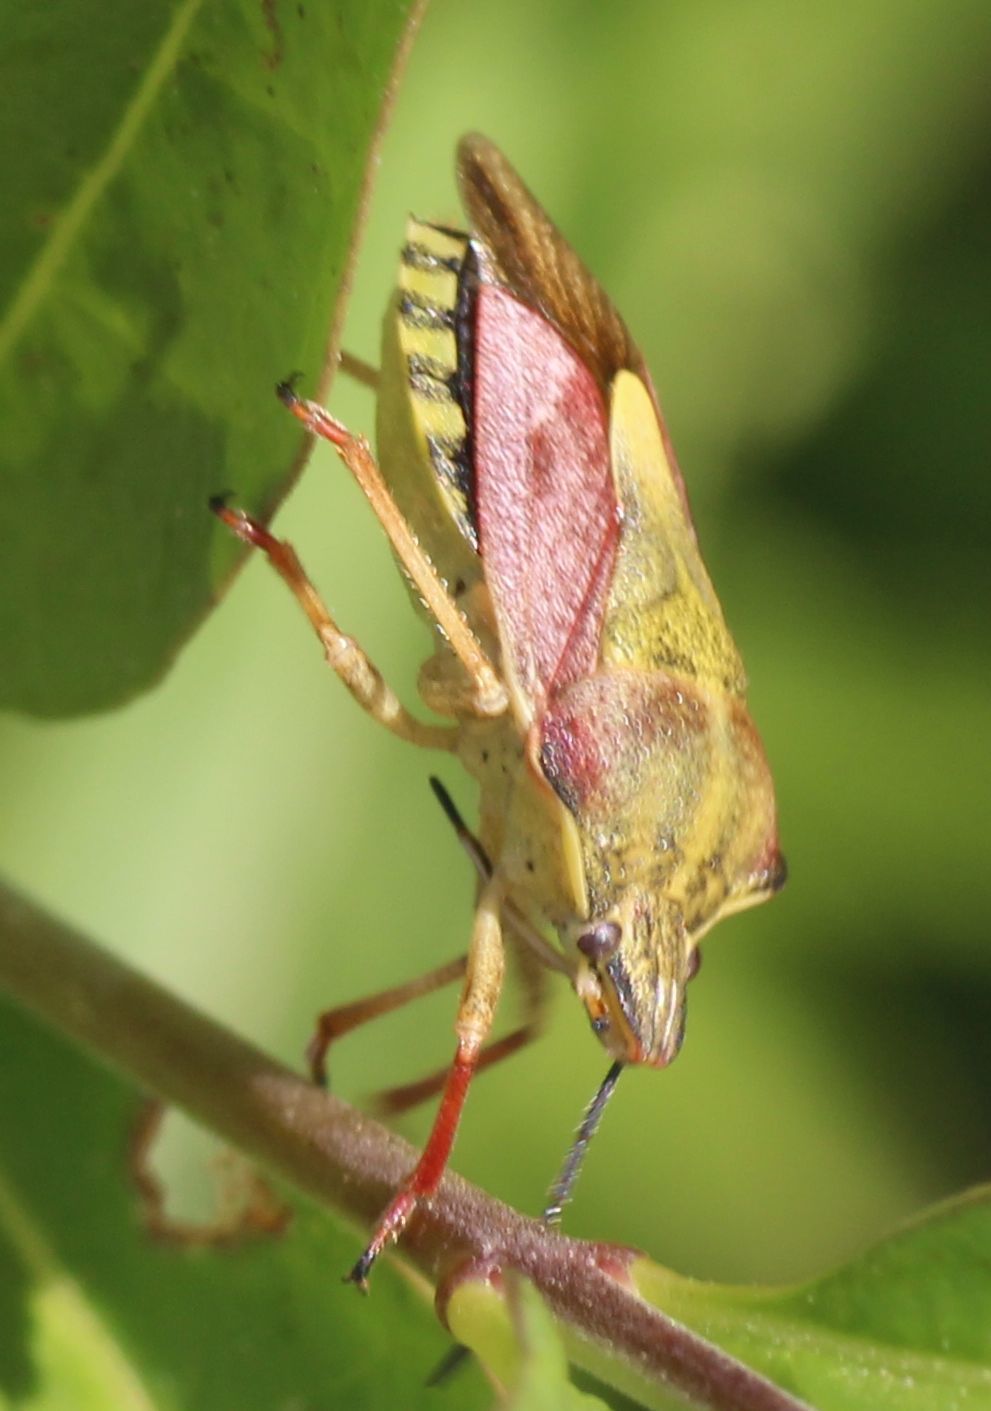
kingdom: Animalia
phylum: Arthropoda
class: Insecta
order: Hemiptera
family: Pentatomidae
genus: Carpocoris
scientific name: Carpocoris purpureipennis
